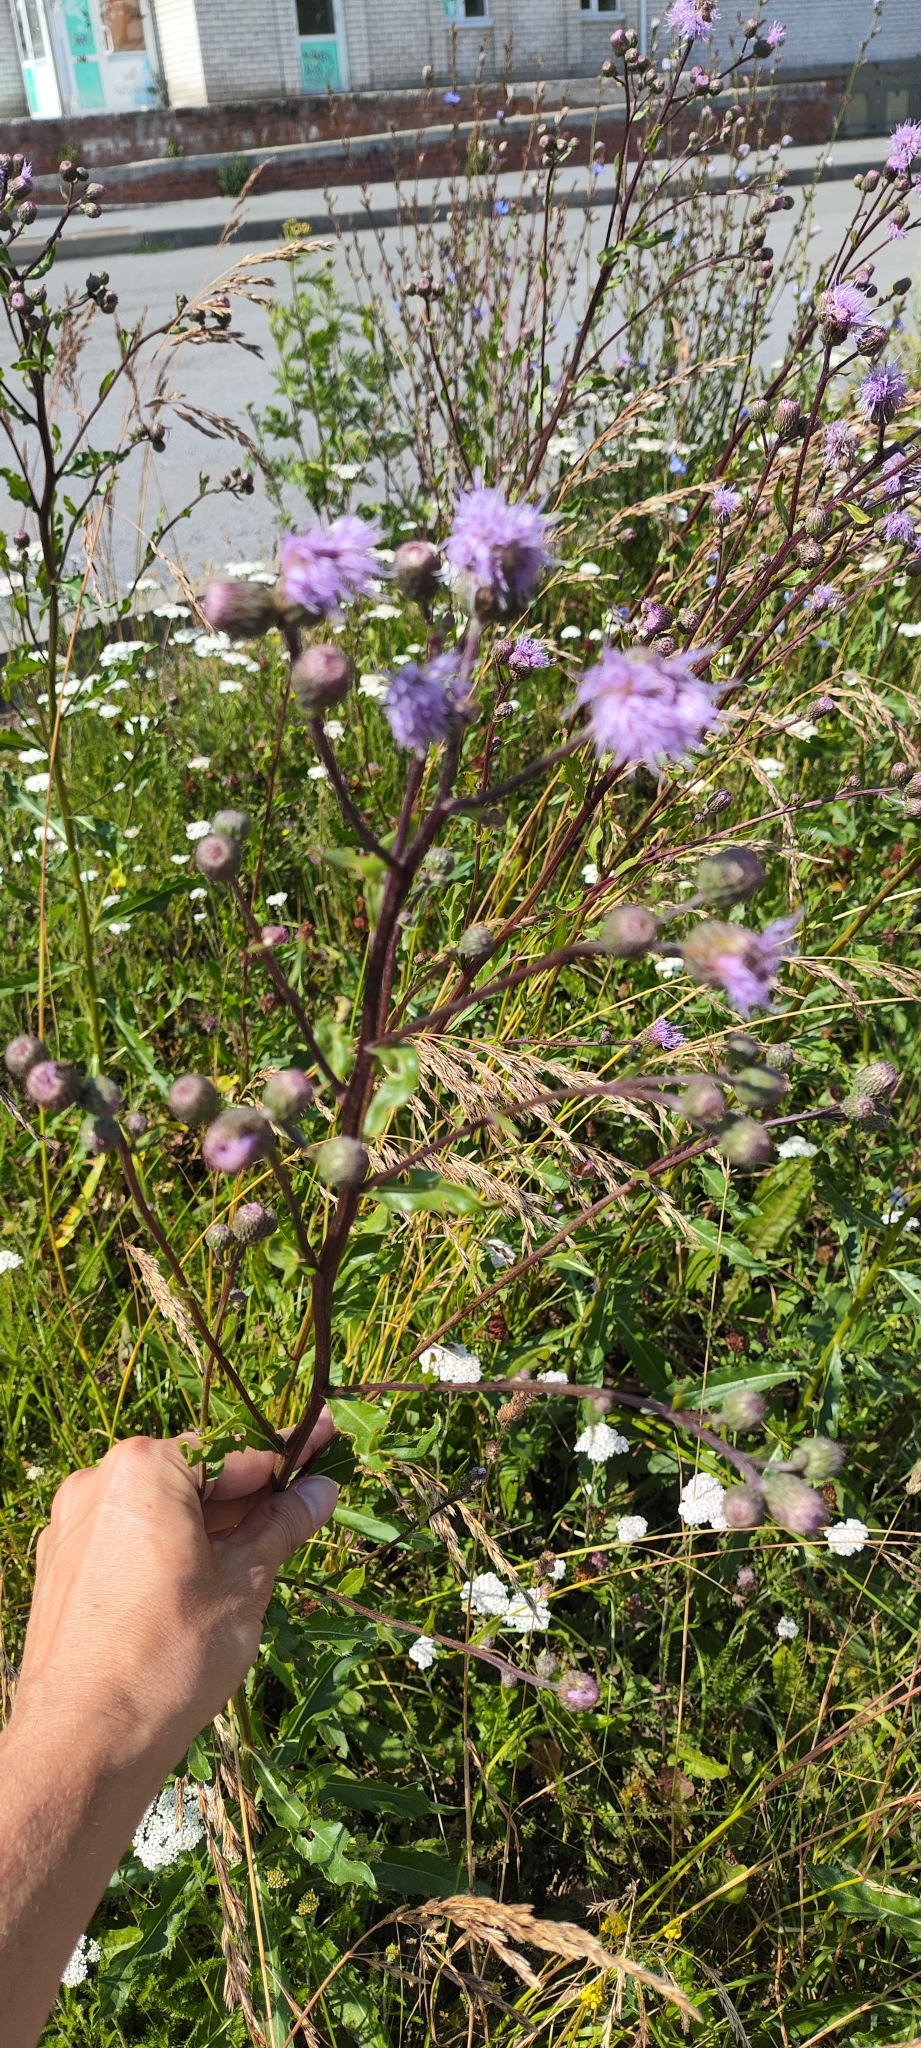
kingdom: Plantae
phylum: Tracheophyta
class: Magnoliopsida
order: Asterales
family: Asteraceae
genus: Cirsium
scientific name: Cirsium arvense
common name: Creeping thistle
